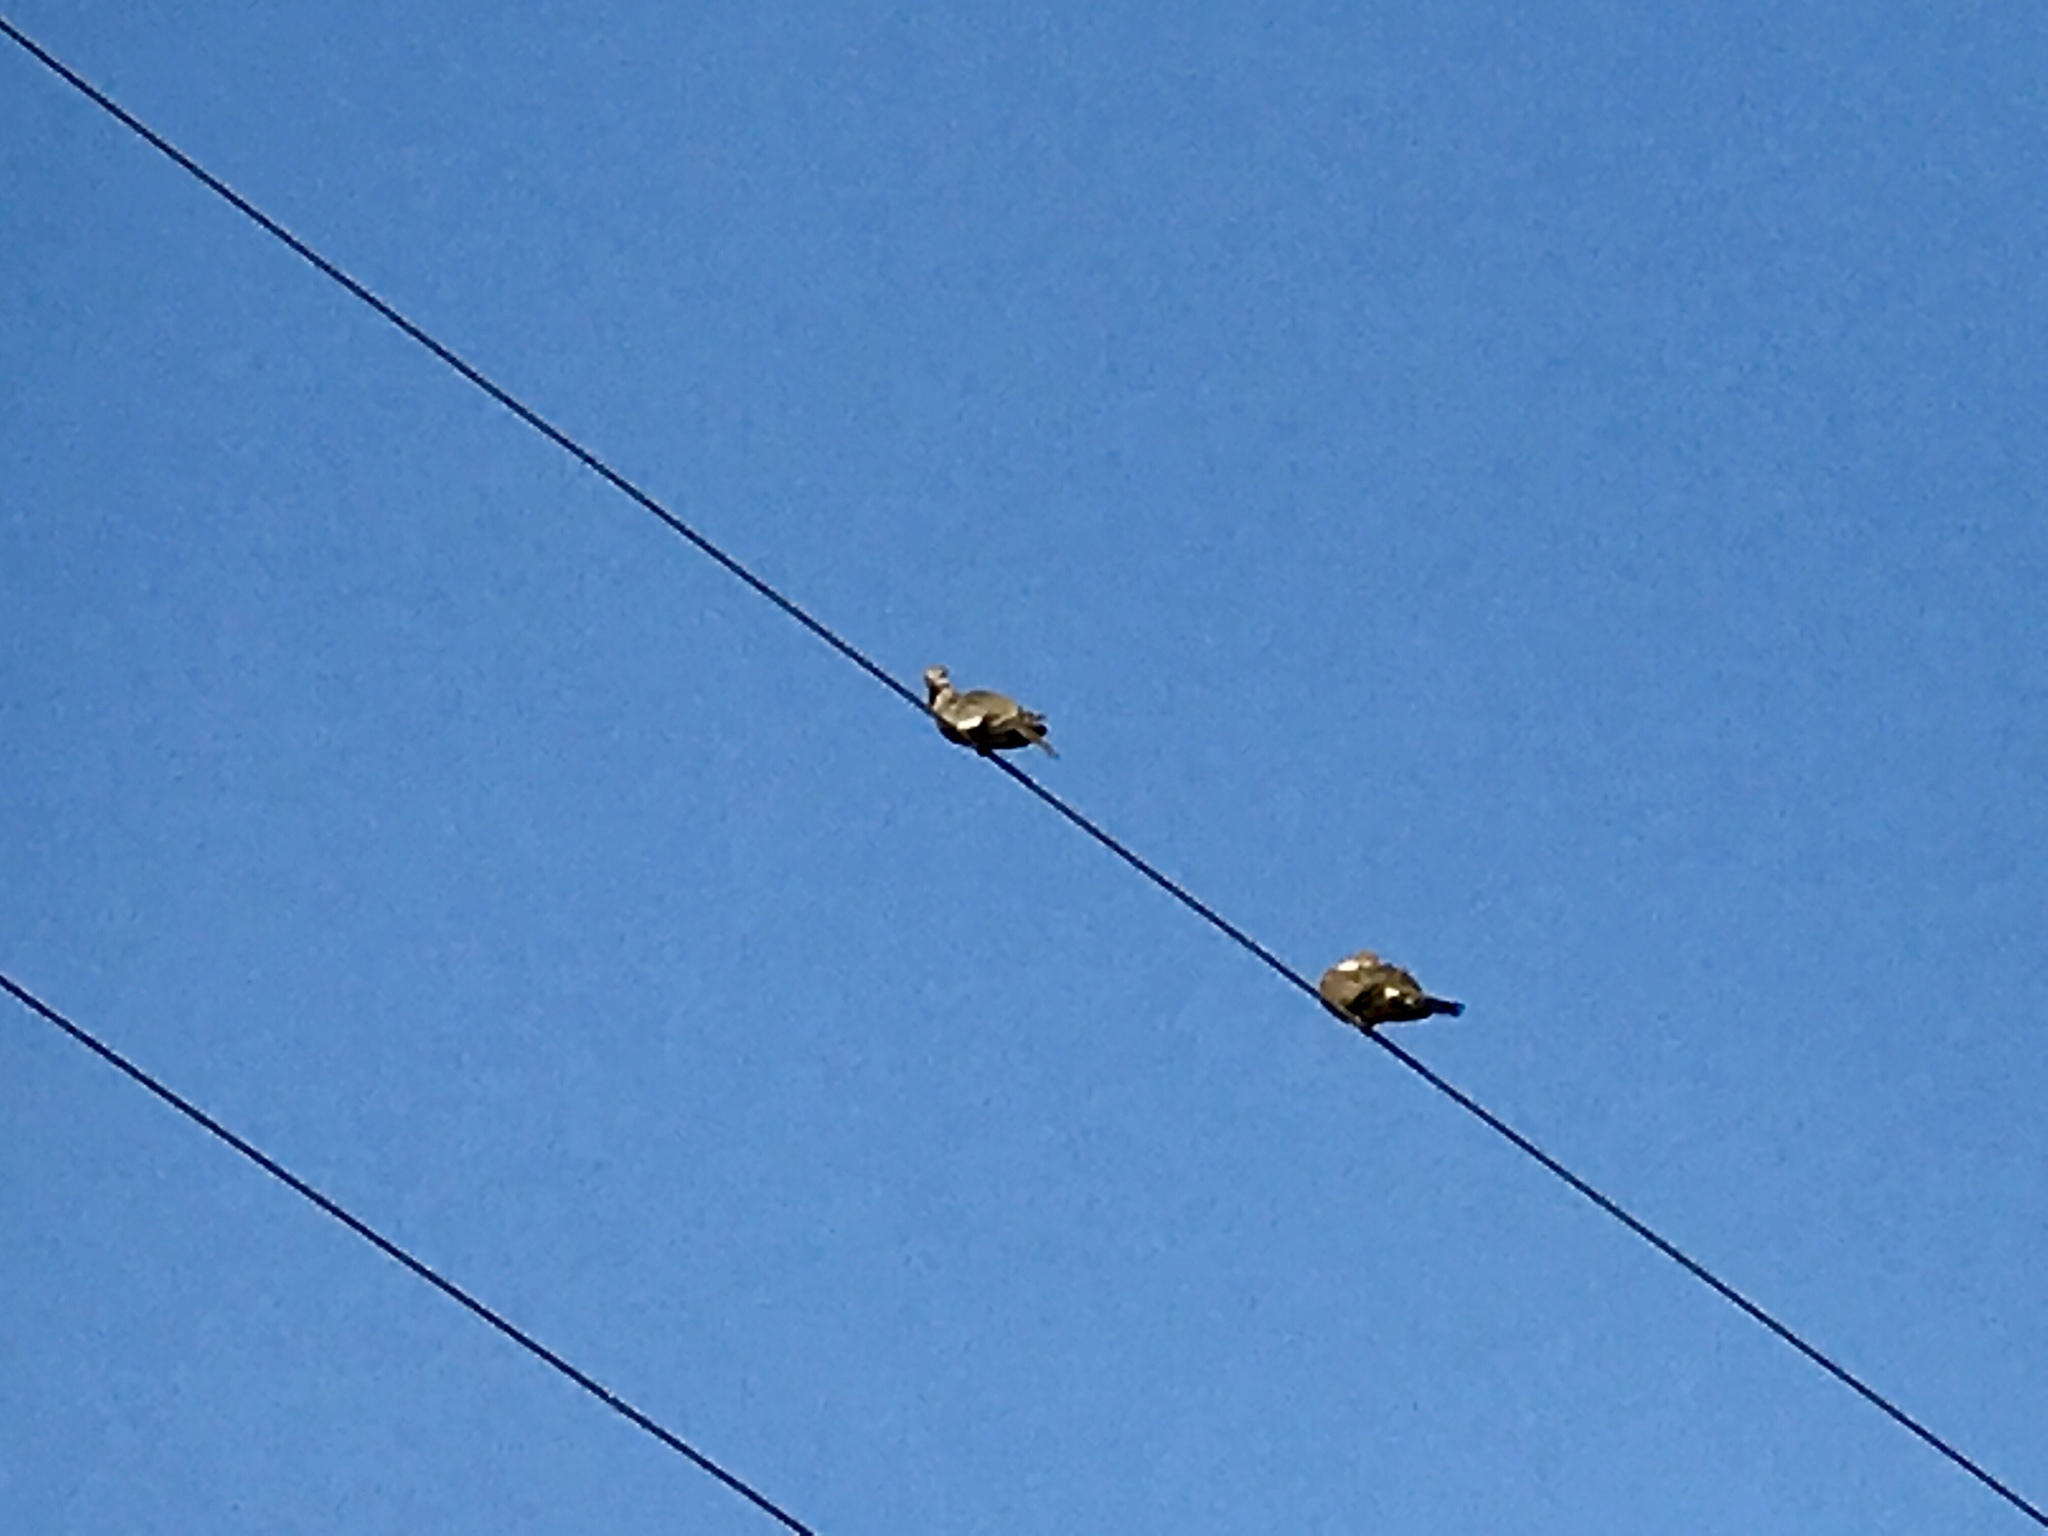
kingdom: Animalia
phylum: Chordata
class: Aves
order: Columbiformes
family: Columbidae
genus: Zenaida
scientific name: Zenaida macroura
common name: Mourning dove
